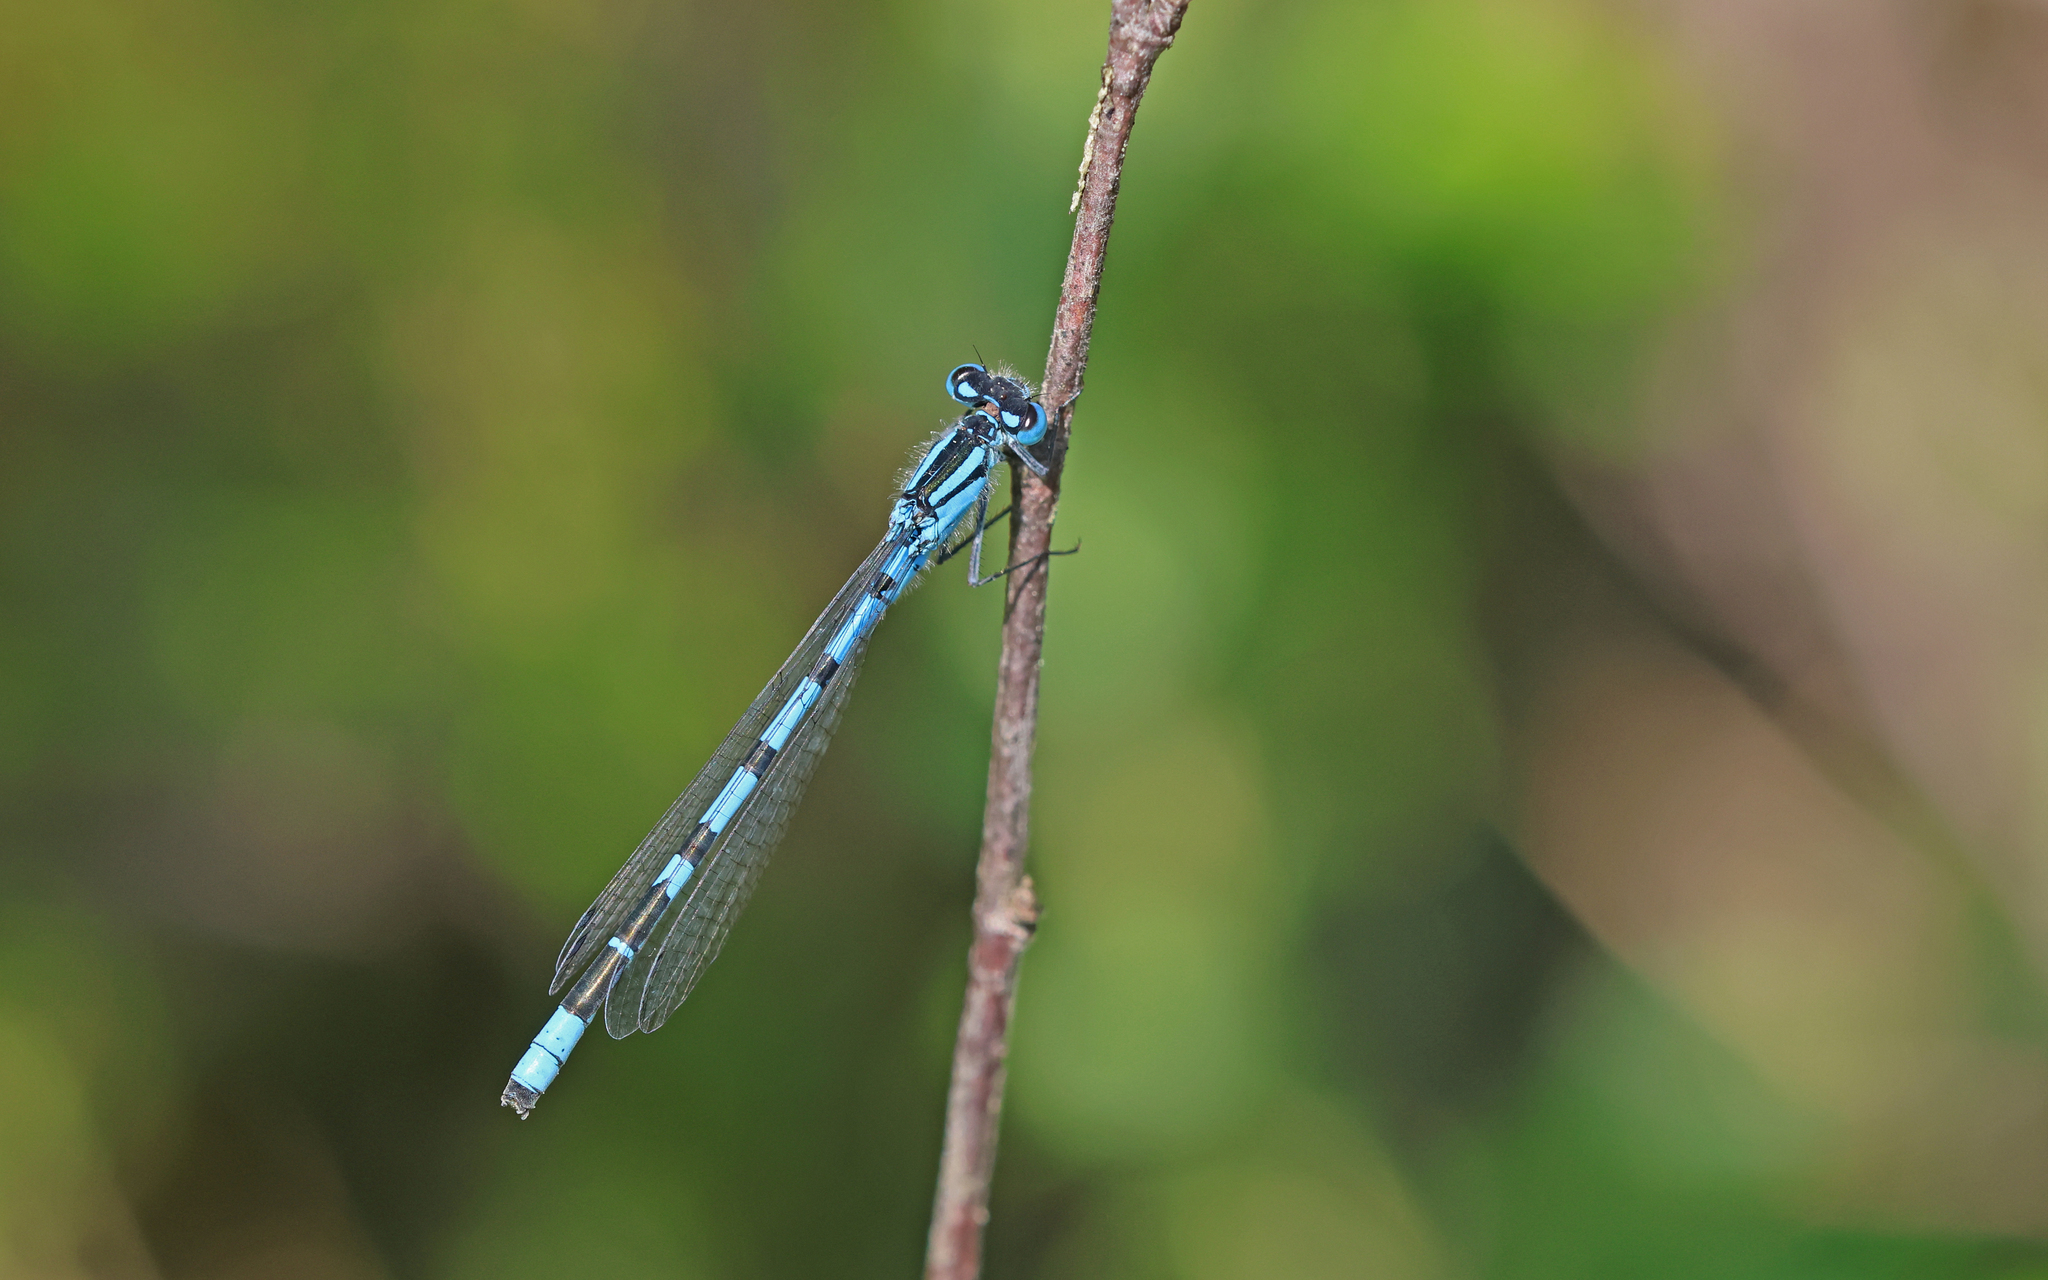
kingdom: Animalia
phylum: Arthropoda
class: Insecta
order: Odonata
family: Coenagrionidae
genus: Enallagma
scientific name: Enallagma cyathigerum
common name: Common blue damselfly
